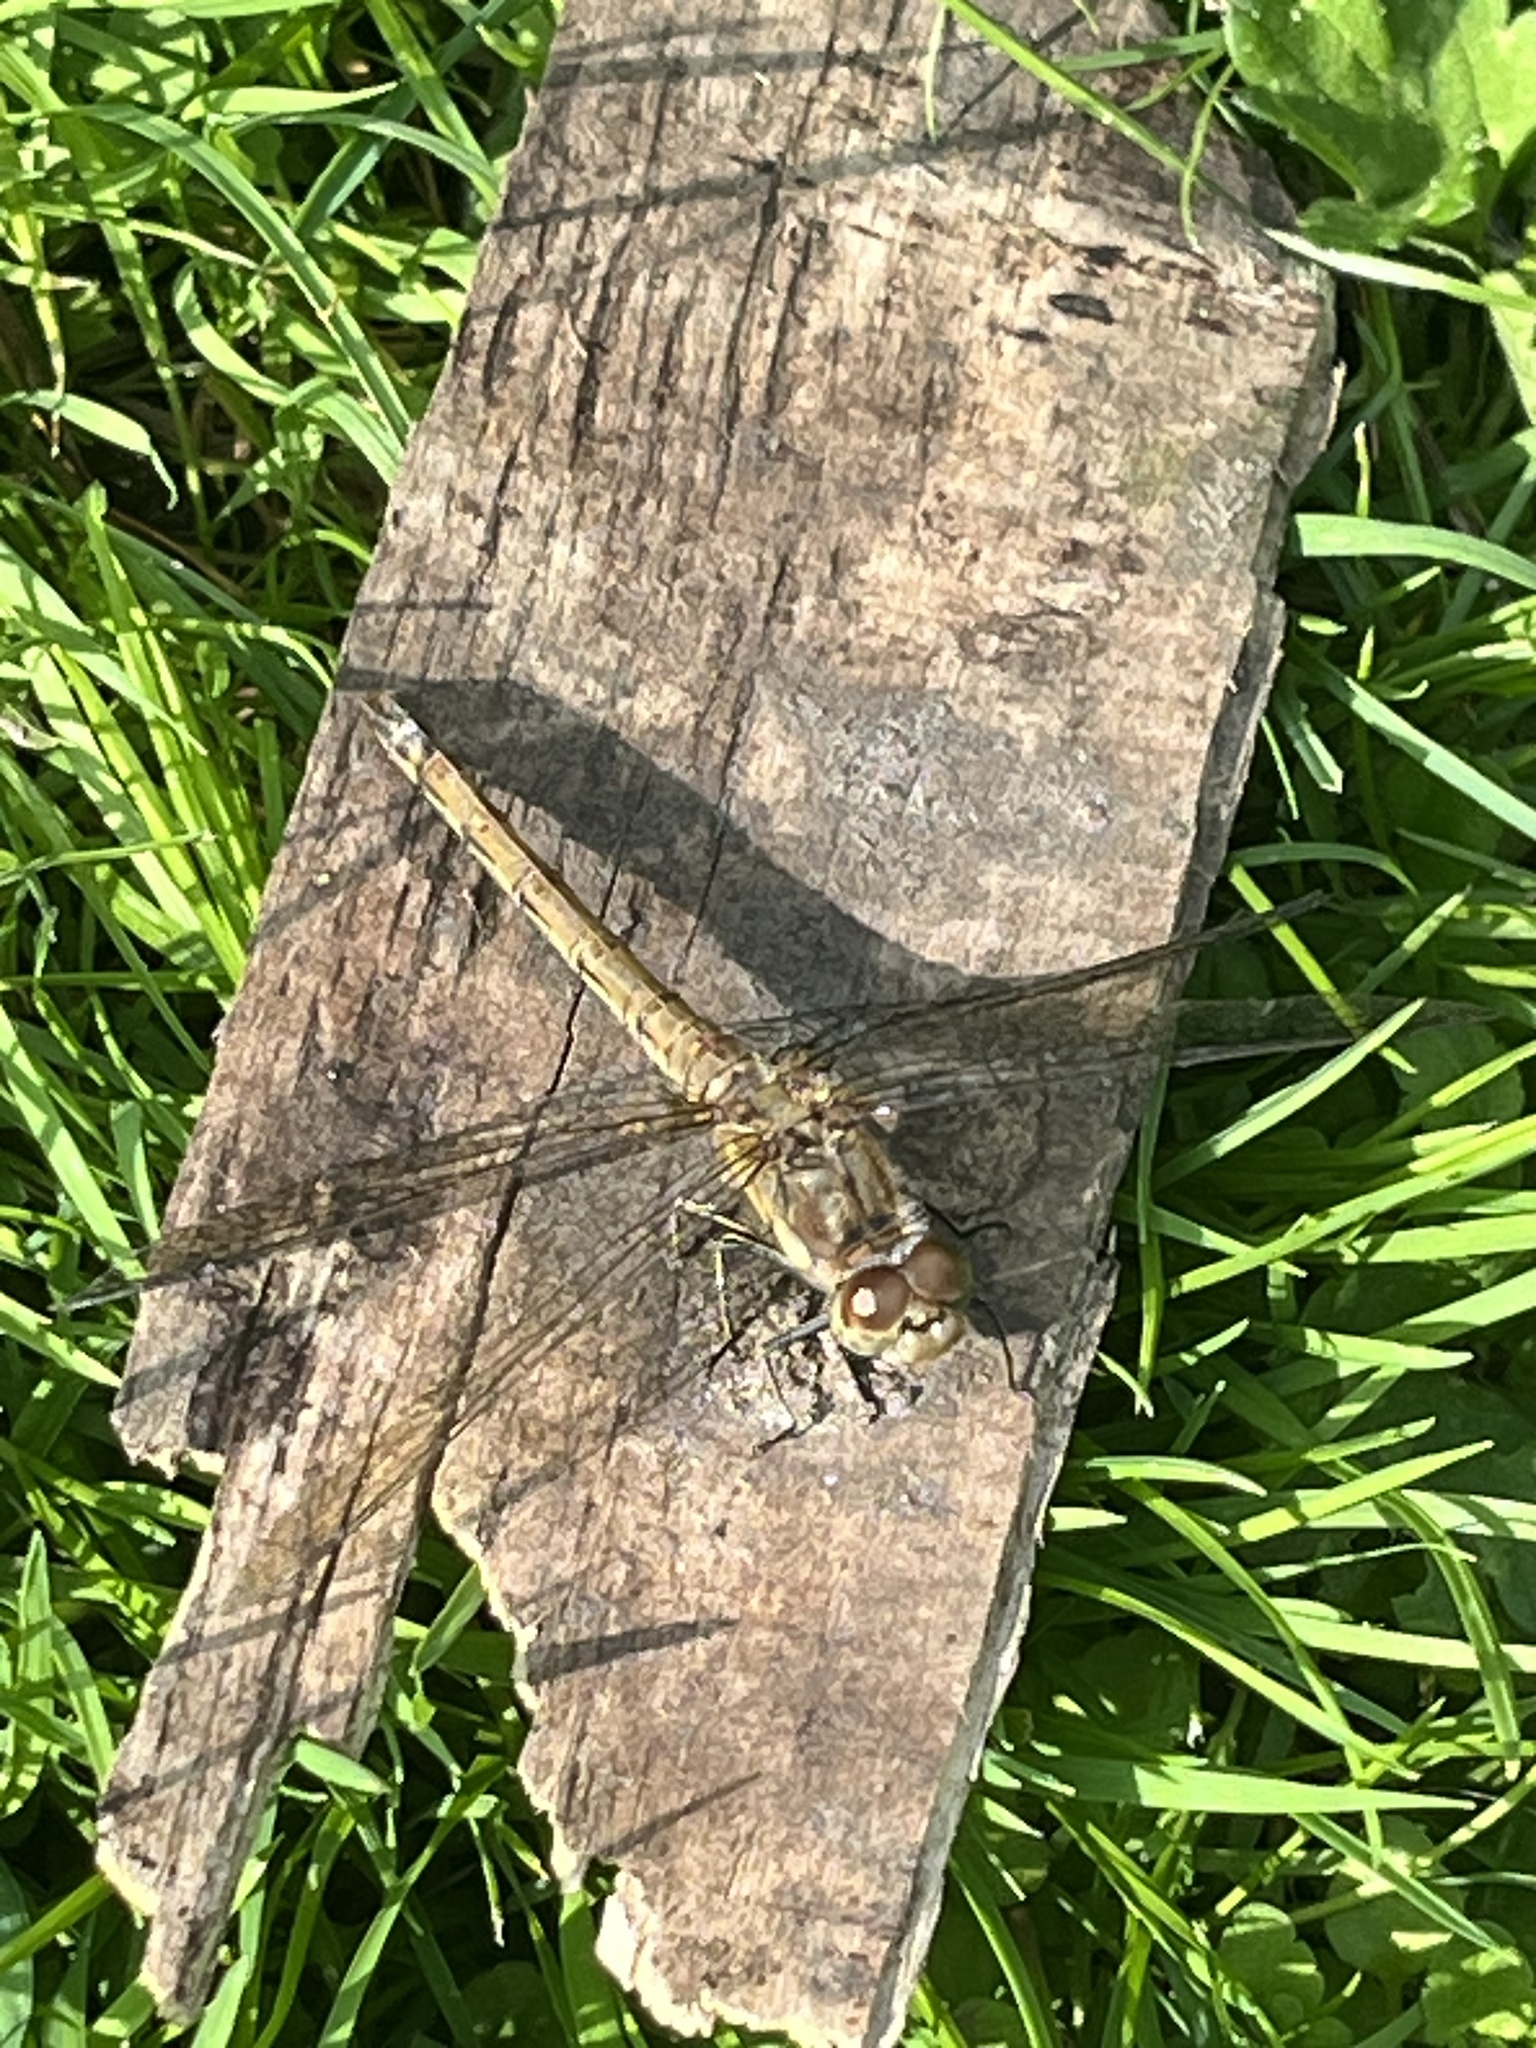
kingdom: Animalia
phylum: Arthropoda
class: Insecta
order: Odonata
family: Libellulidae
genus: Sympetrum
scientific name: Sympetrum striolatum
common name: Common darter
